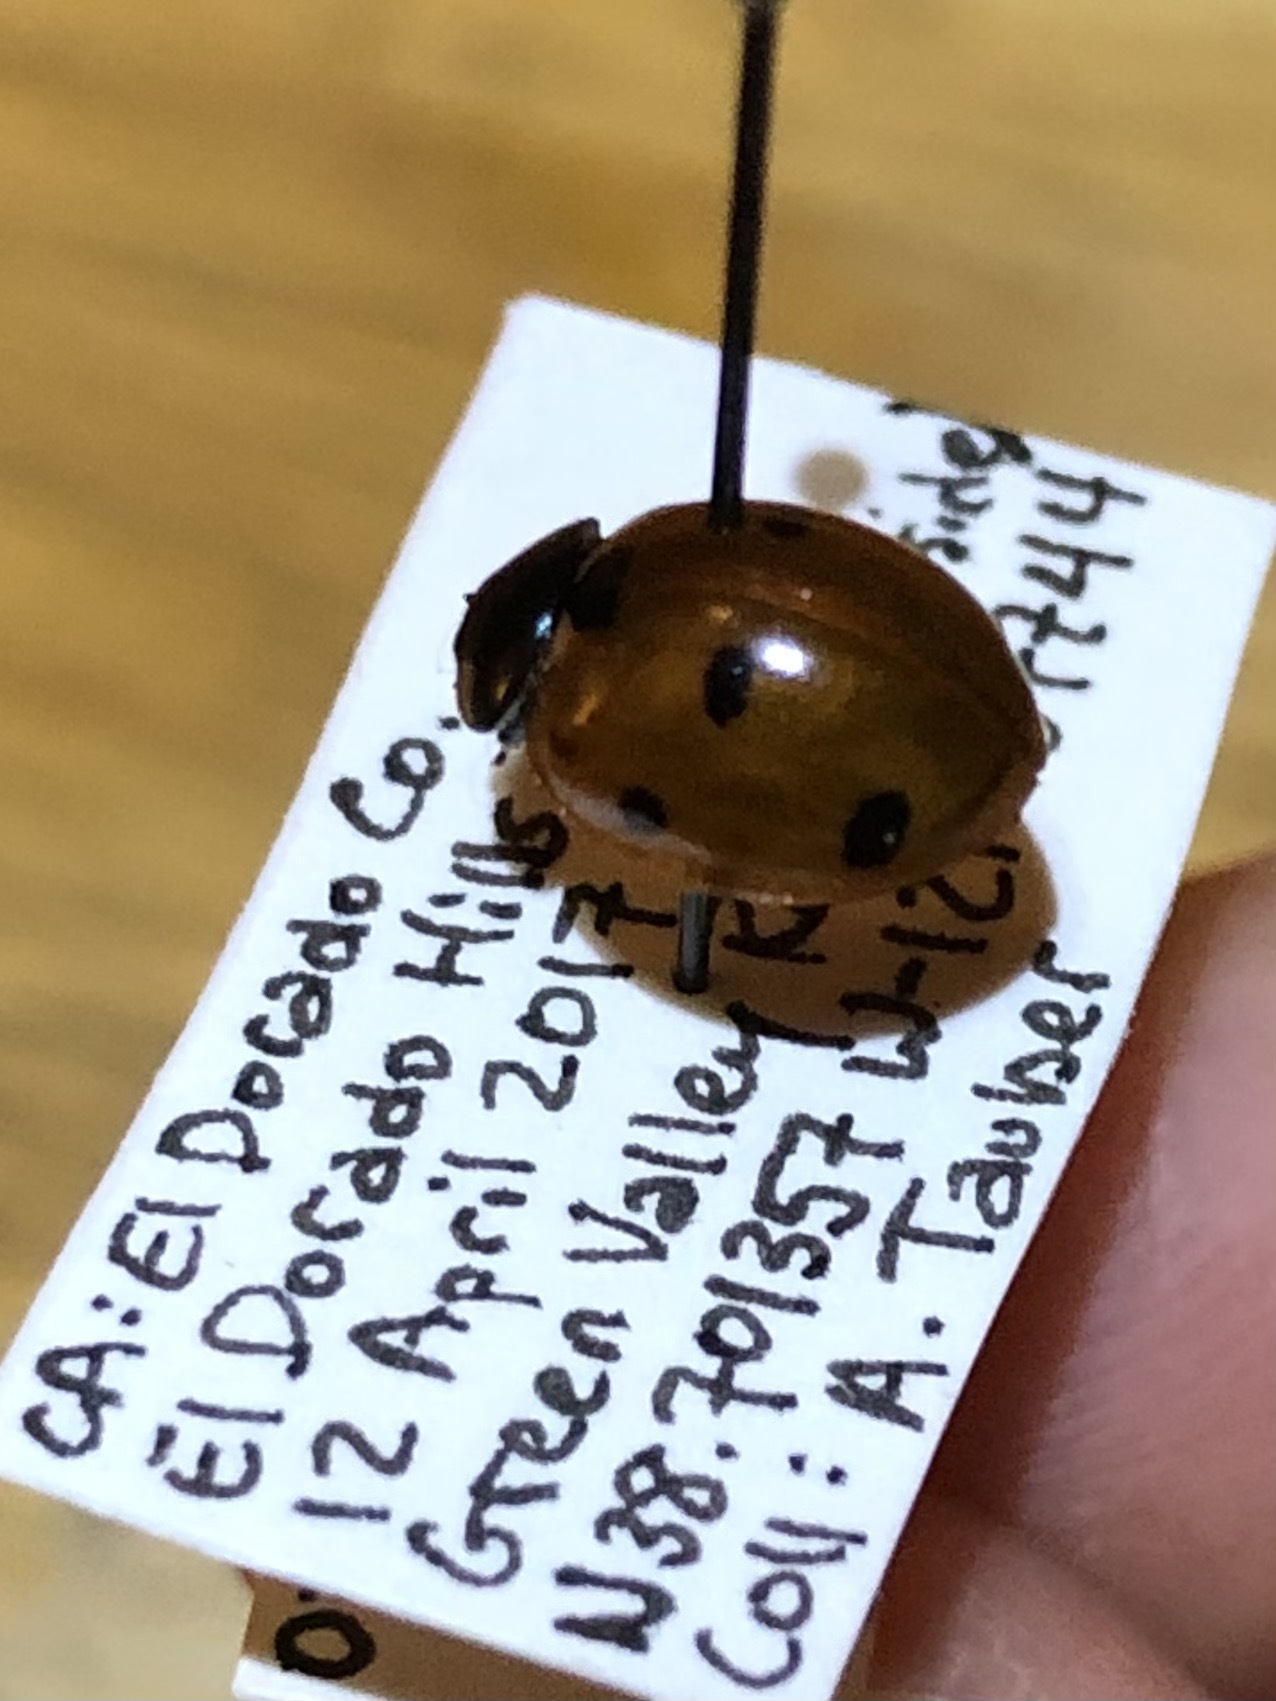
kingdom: Animalia
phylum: Arthropoda
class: Insecta
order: Coleoptera
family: Coccinellidae
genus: Coccinella
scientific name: Coccinella septempunctata
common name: Sevenspotted lady beetle
